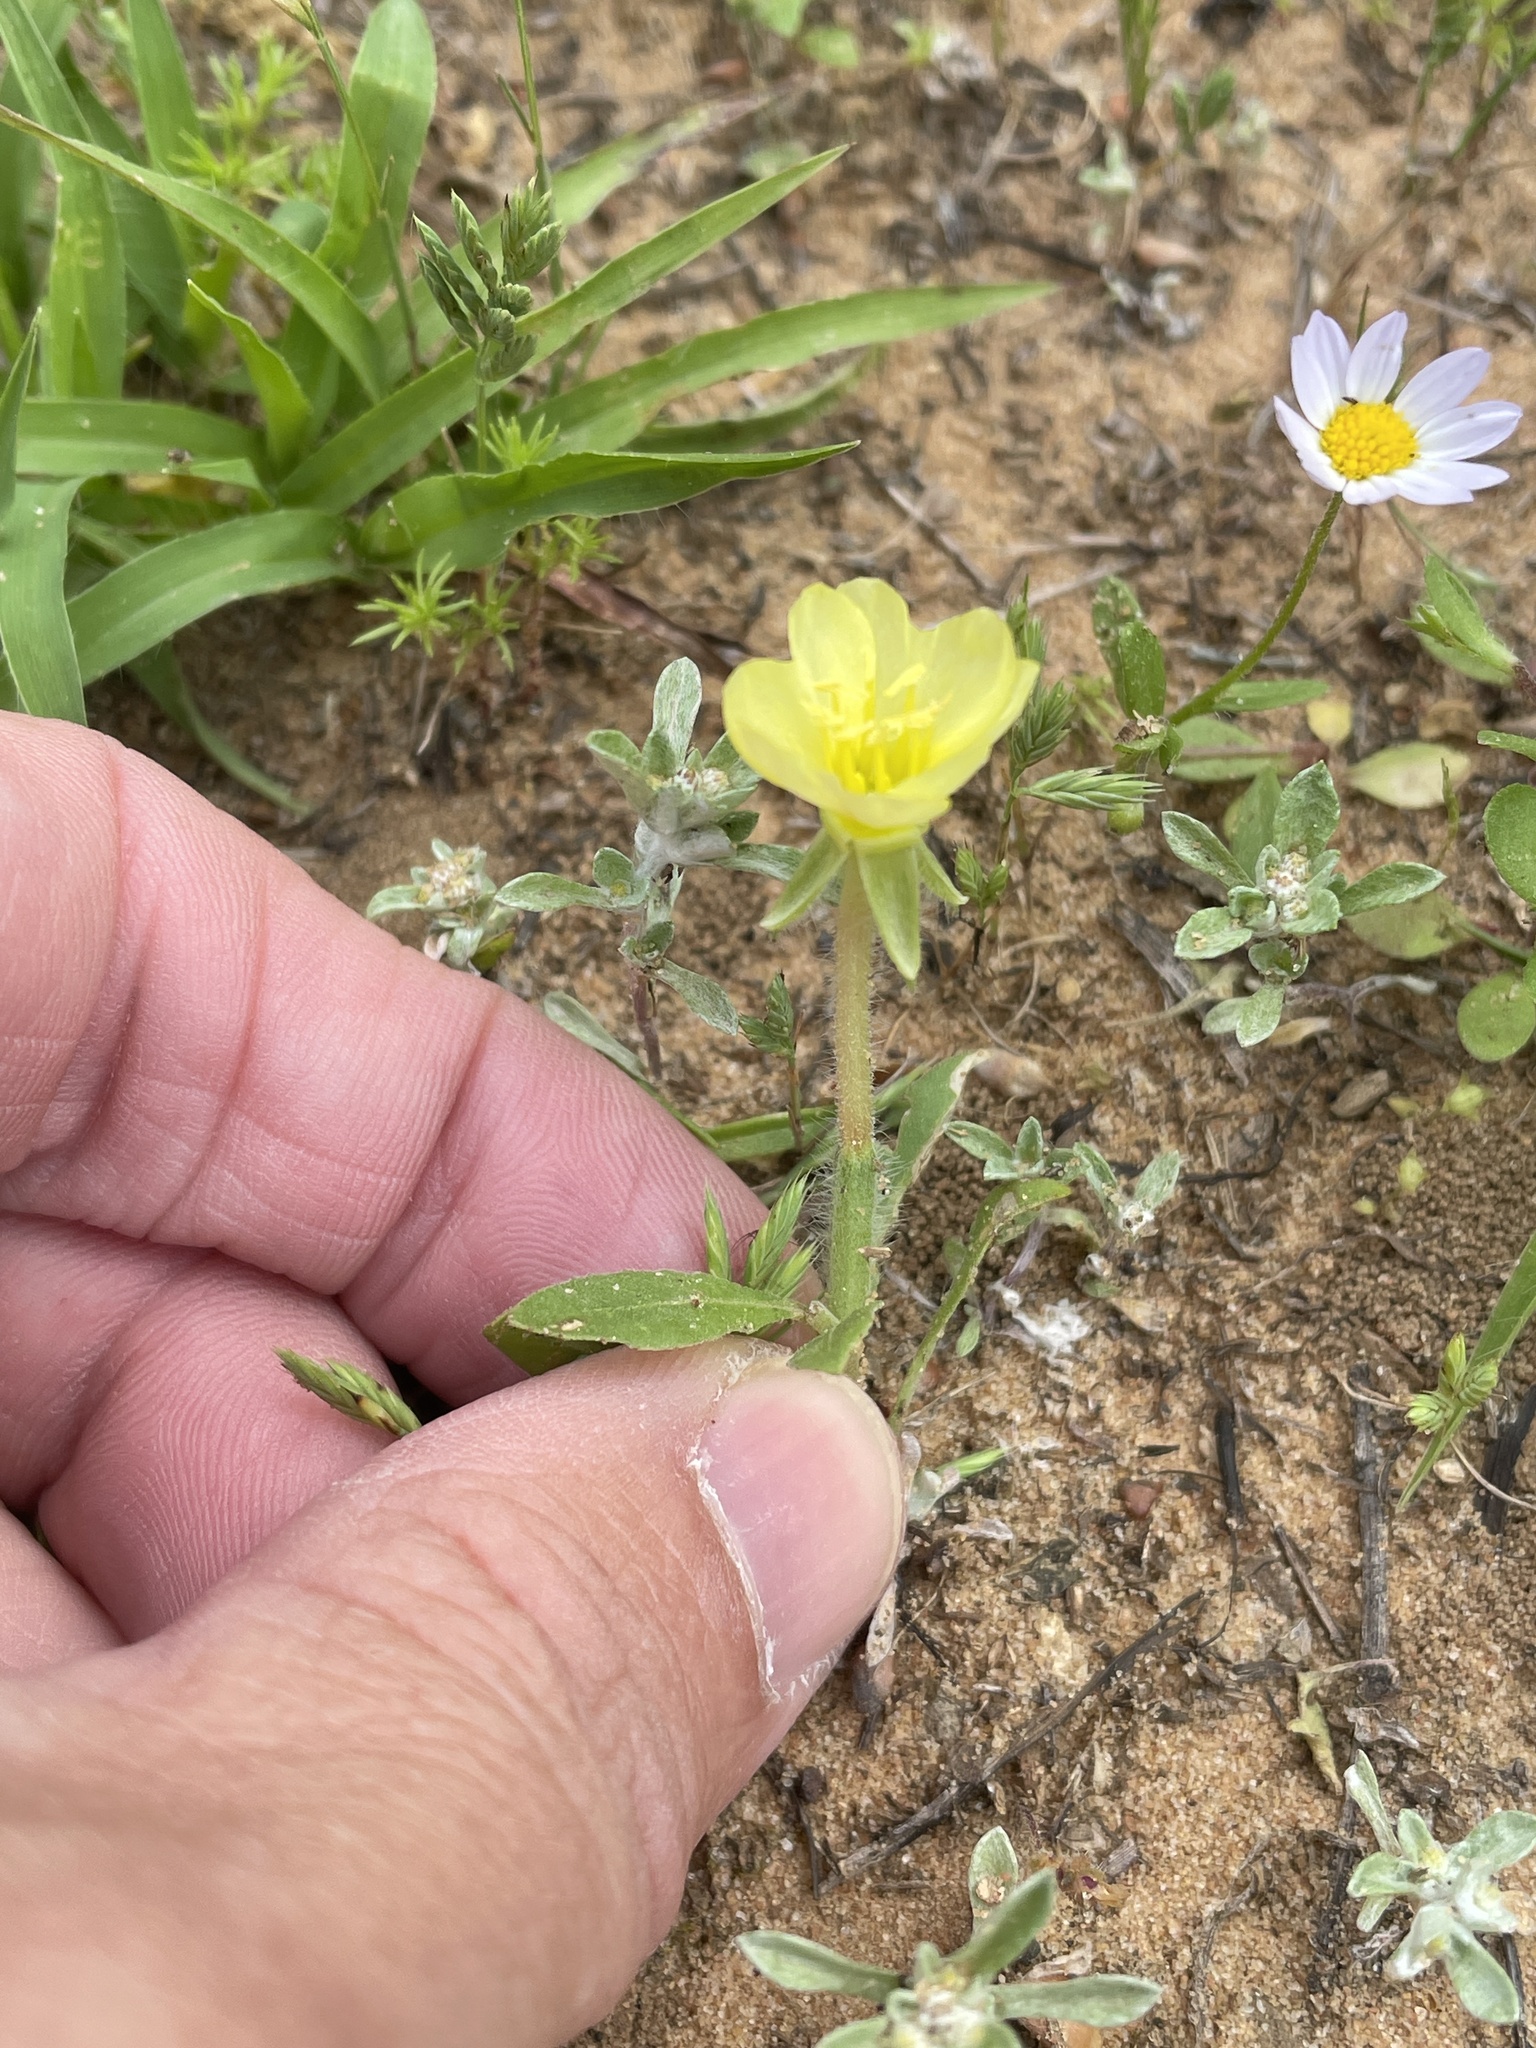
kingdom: Plantae
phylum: Tracheophyta
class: Magnoliopsida
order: Myrtales
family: Onagraceae
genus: Oenothera
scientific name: Oenothera laciniata
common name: Cut-leaved evening-primrose
